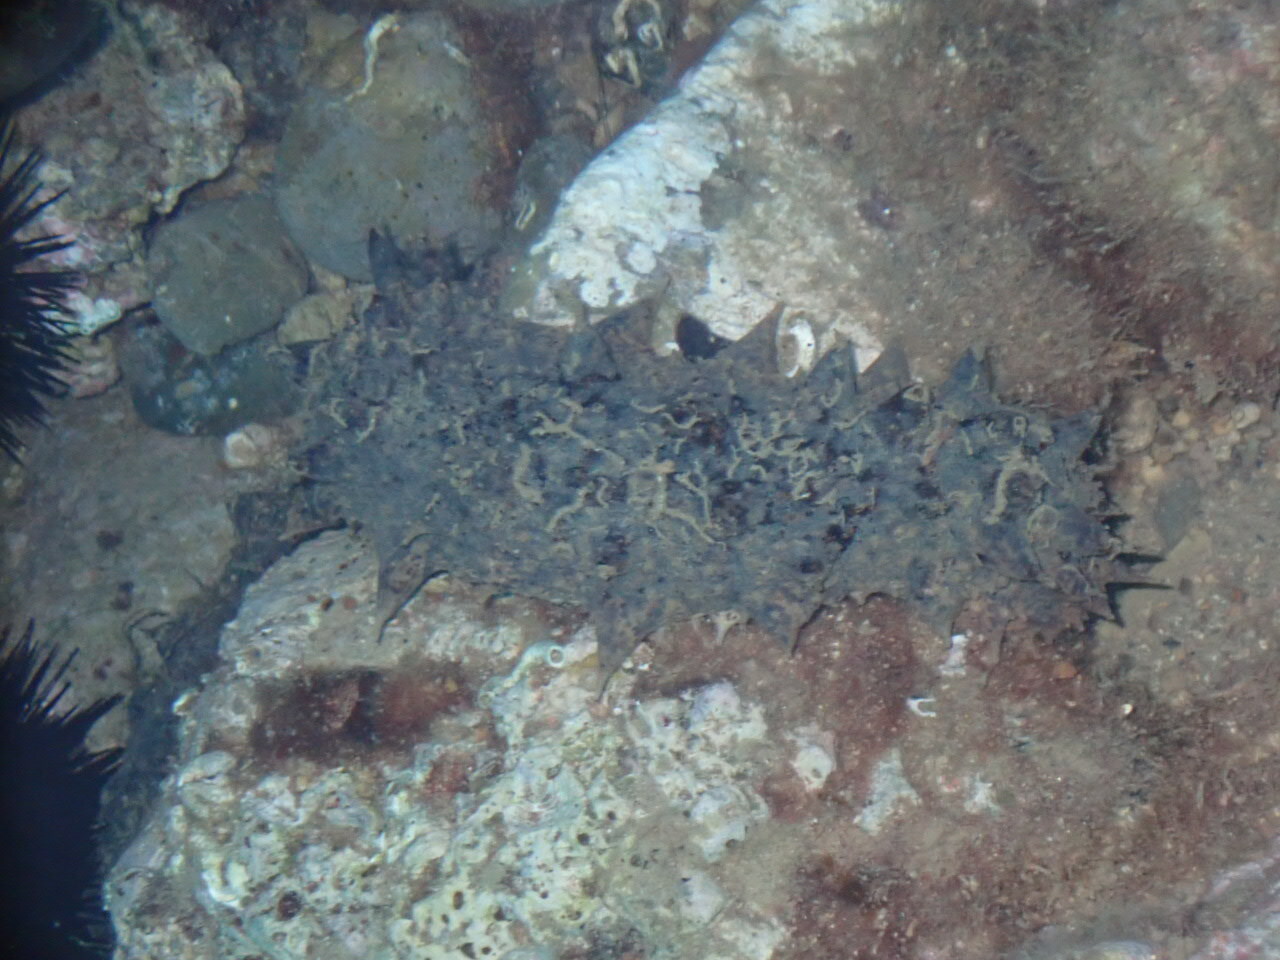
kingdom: Animalia
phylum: Echinodermata
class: Holothuroidea
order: Holothuriida
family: Holothuriidae
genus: Holothuria
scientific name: Holothuria tubulosa
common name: Cotton-spinner
